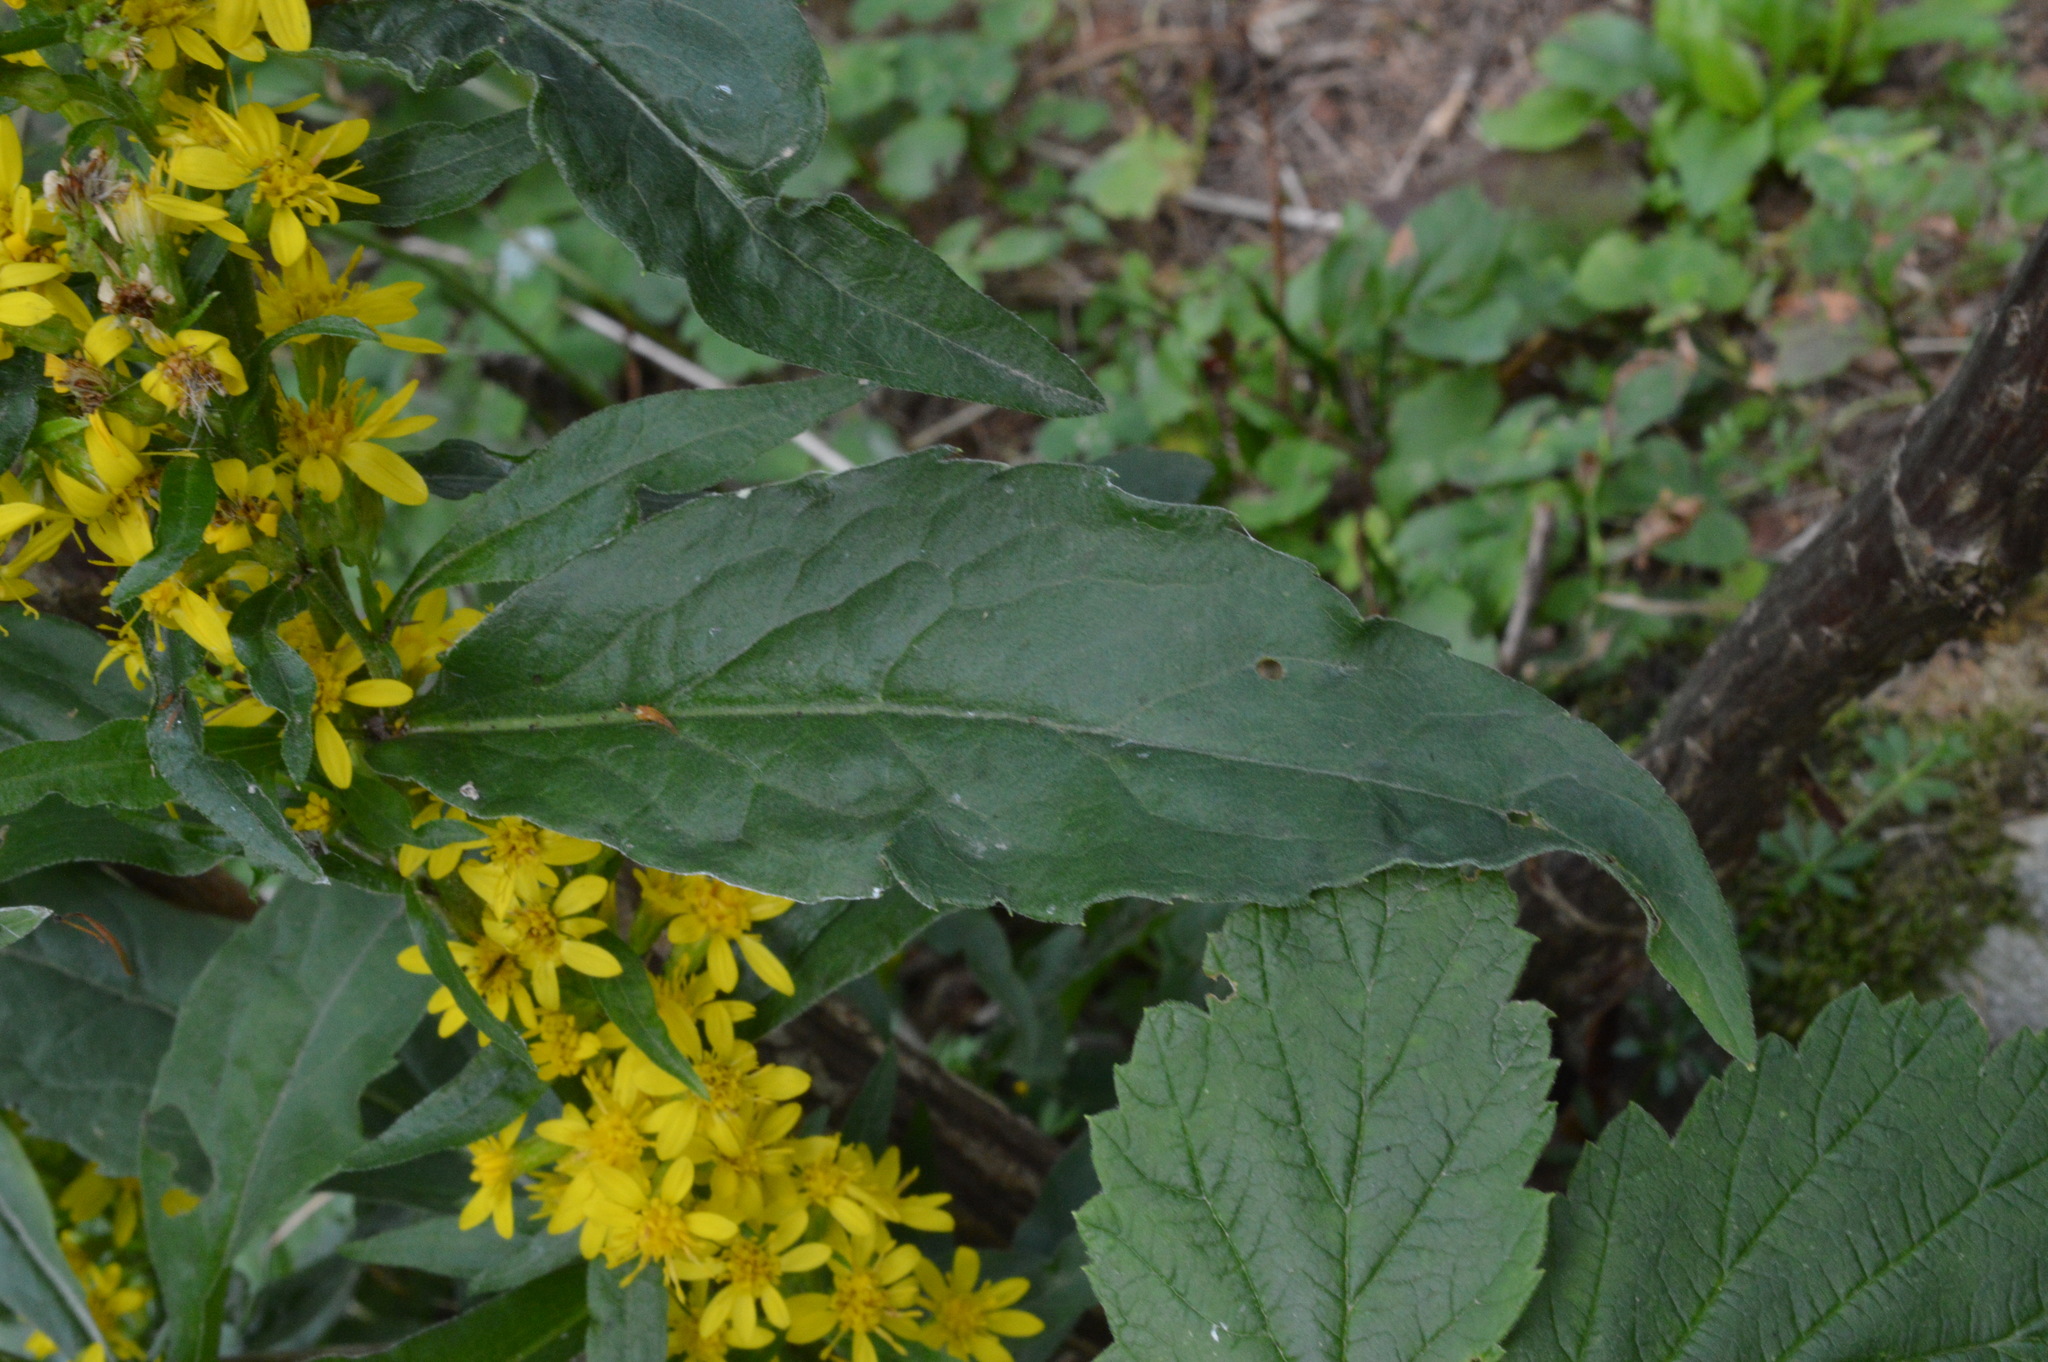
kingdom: Plantae
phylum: Tracheophyta
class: Magnoliopsida
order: Asterales
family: Asteraceae
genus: Solidago
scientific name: Solidago virgaurea
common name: Goldenrod
